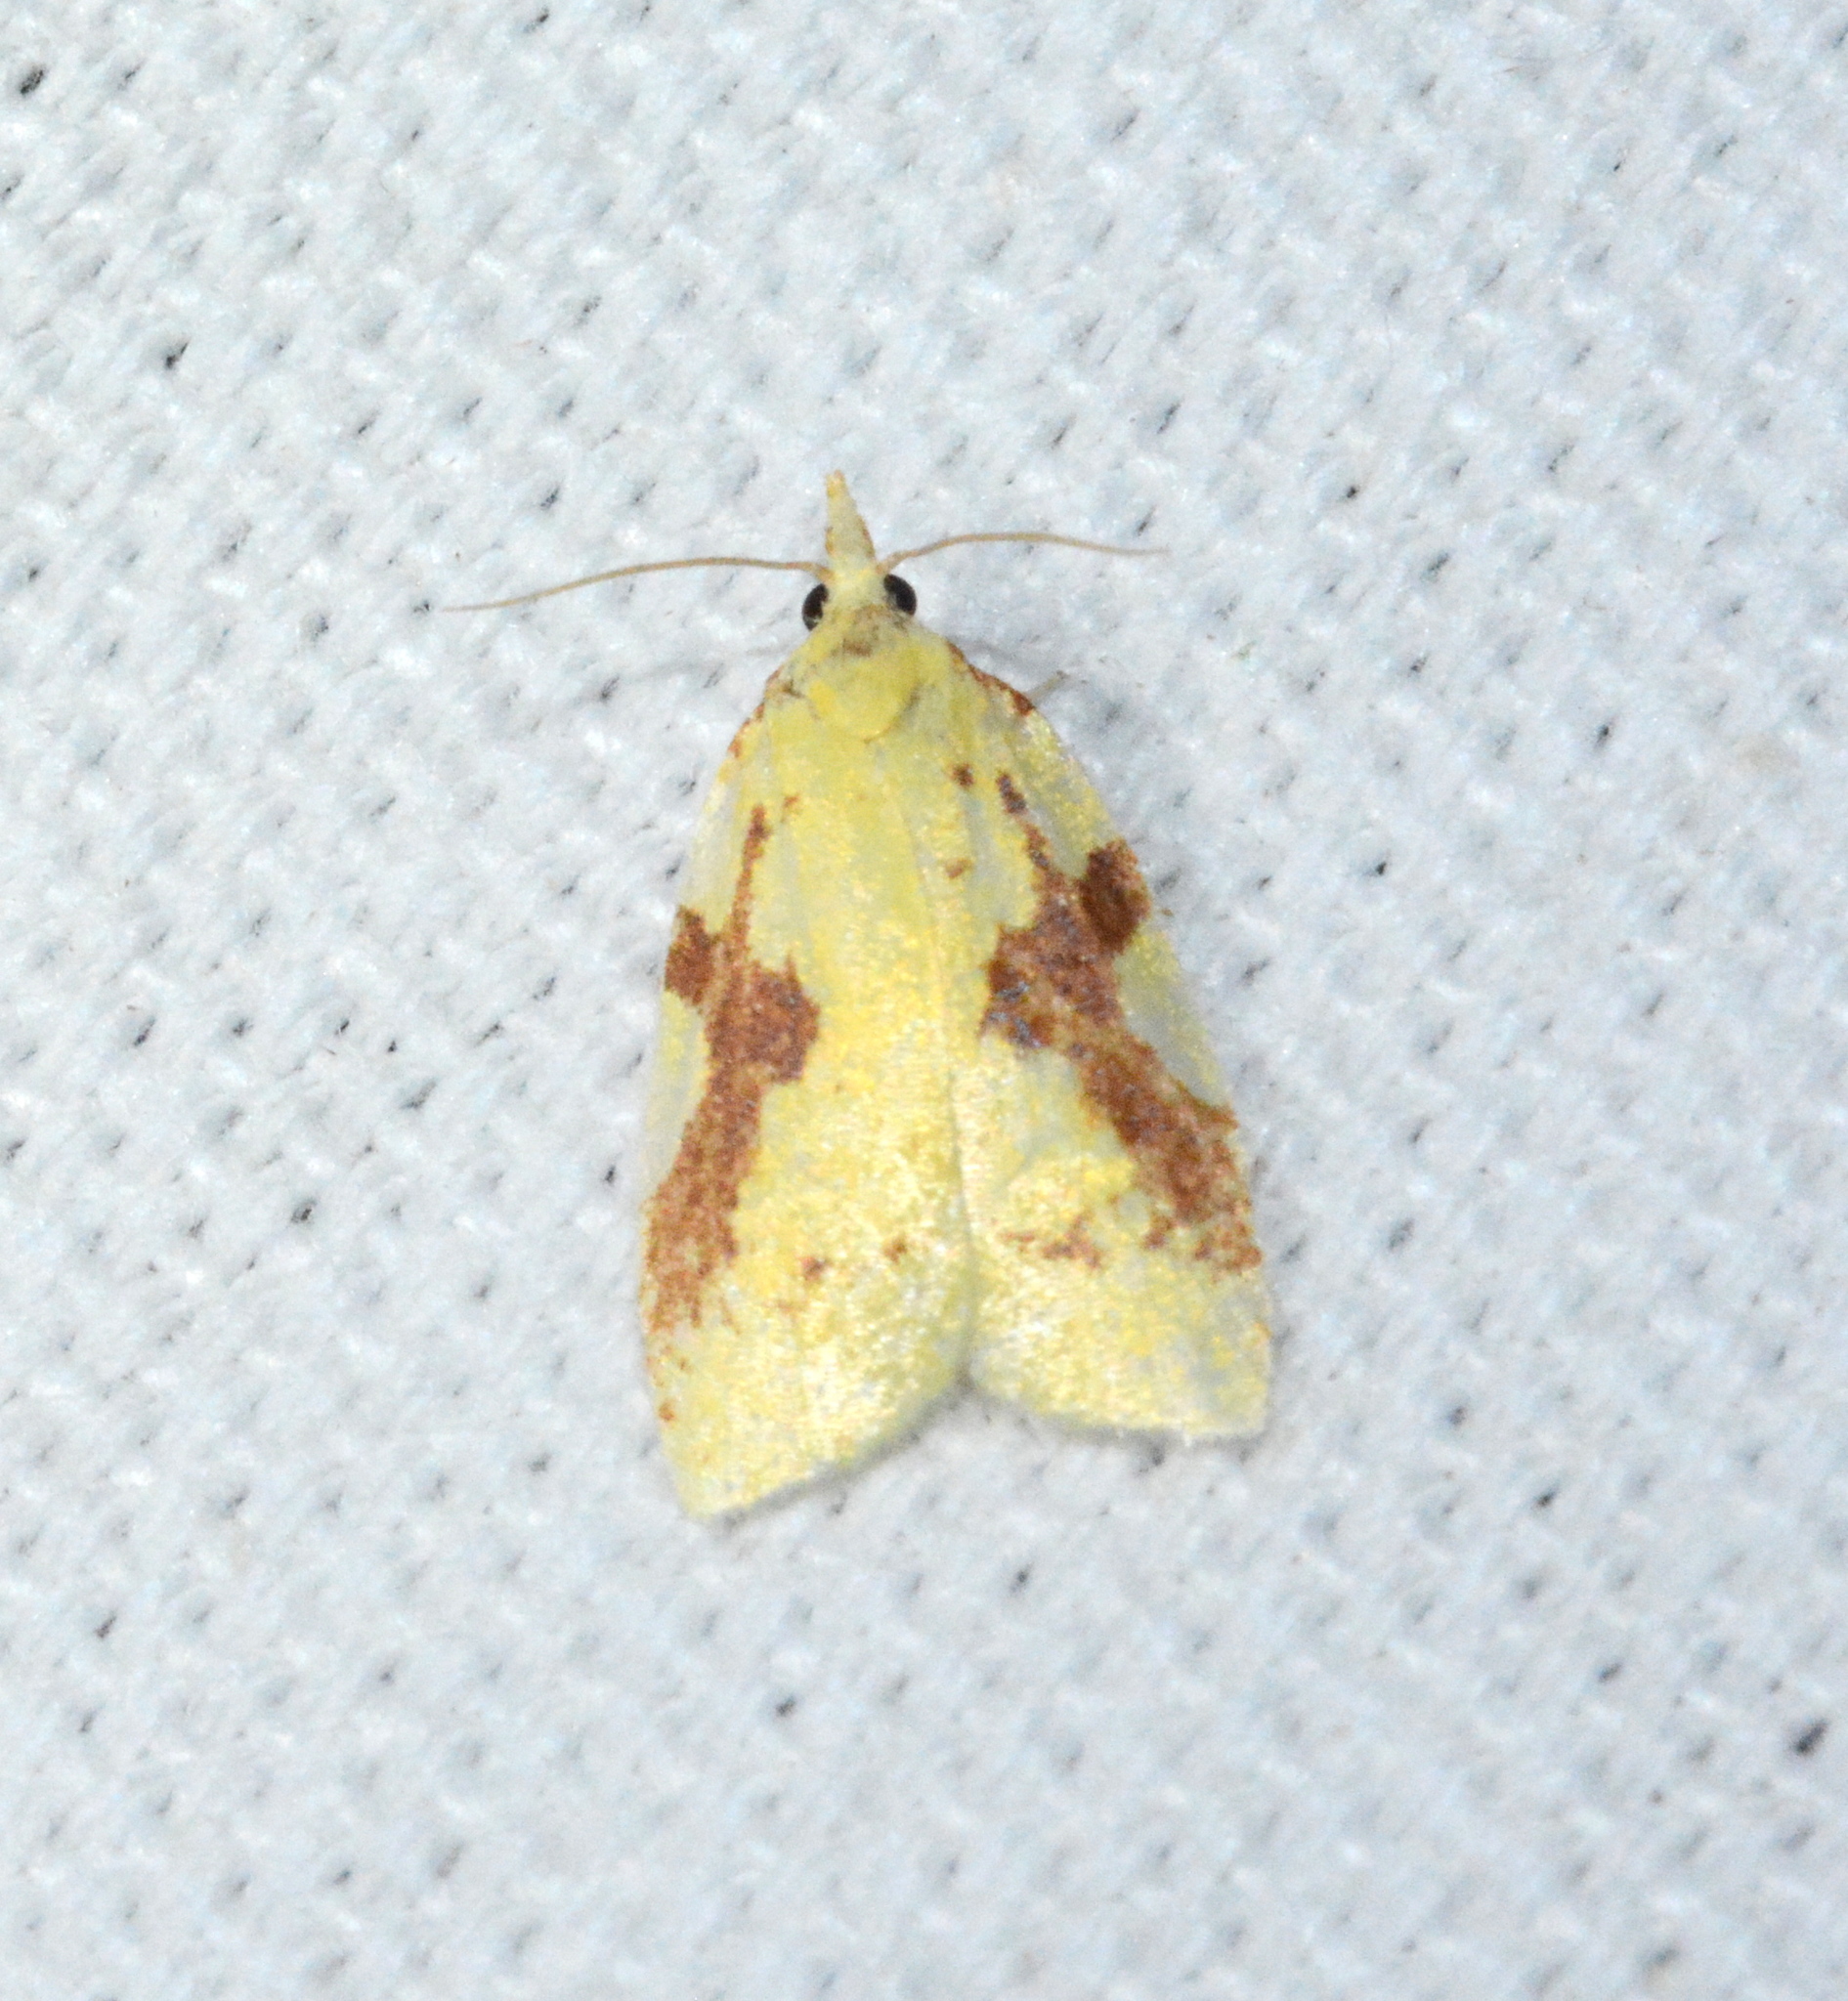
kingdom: Animalia
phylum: Arthropoda
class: Insecta
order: Lepidoptera
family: Tortricidae
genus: Cenopis
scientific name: Cenopis niveana
